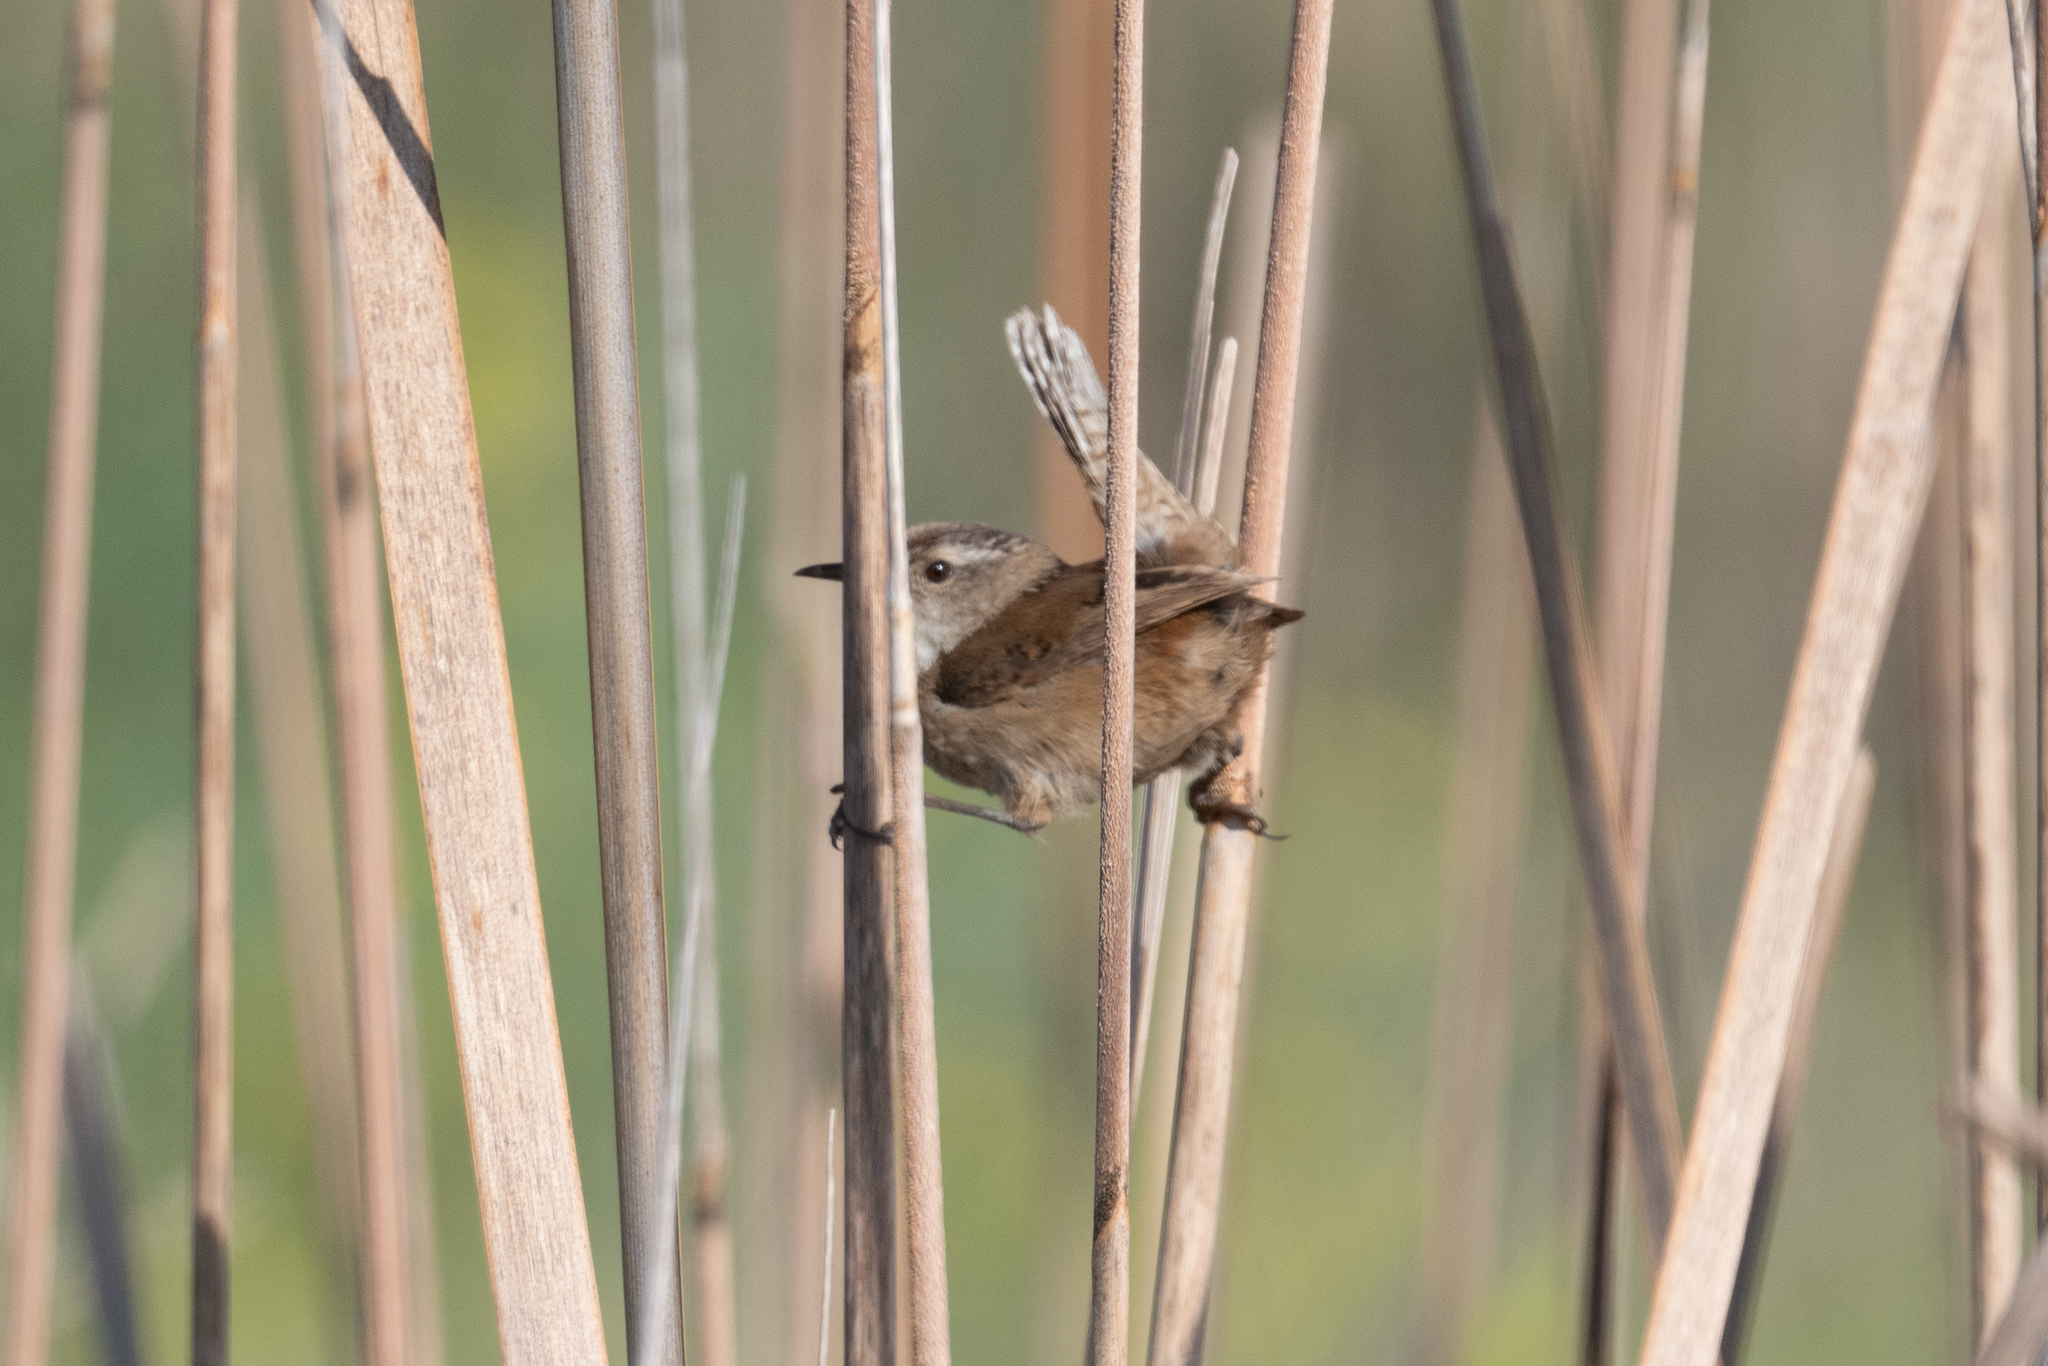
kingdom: Animalia
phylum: Chordata
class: Aves
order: Passeriformes
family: Troglodytidae
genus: Cistothorus
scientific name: Cistothorus palustris
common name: Marsh wren
